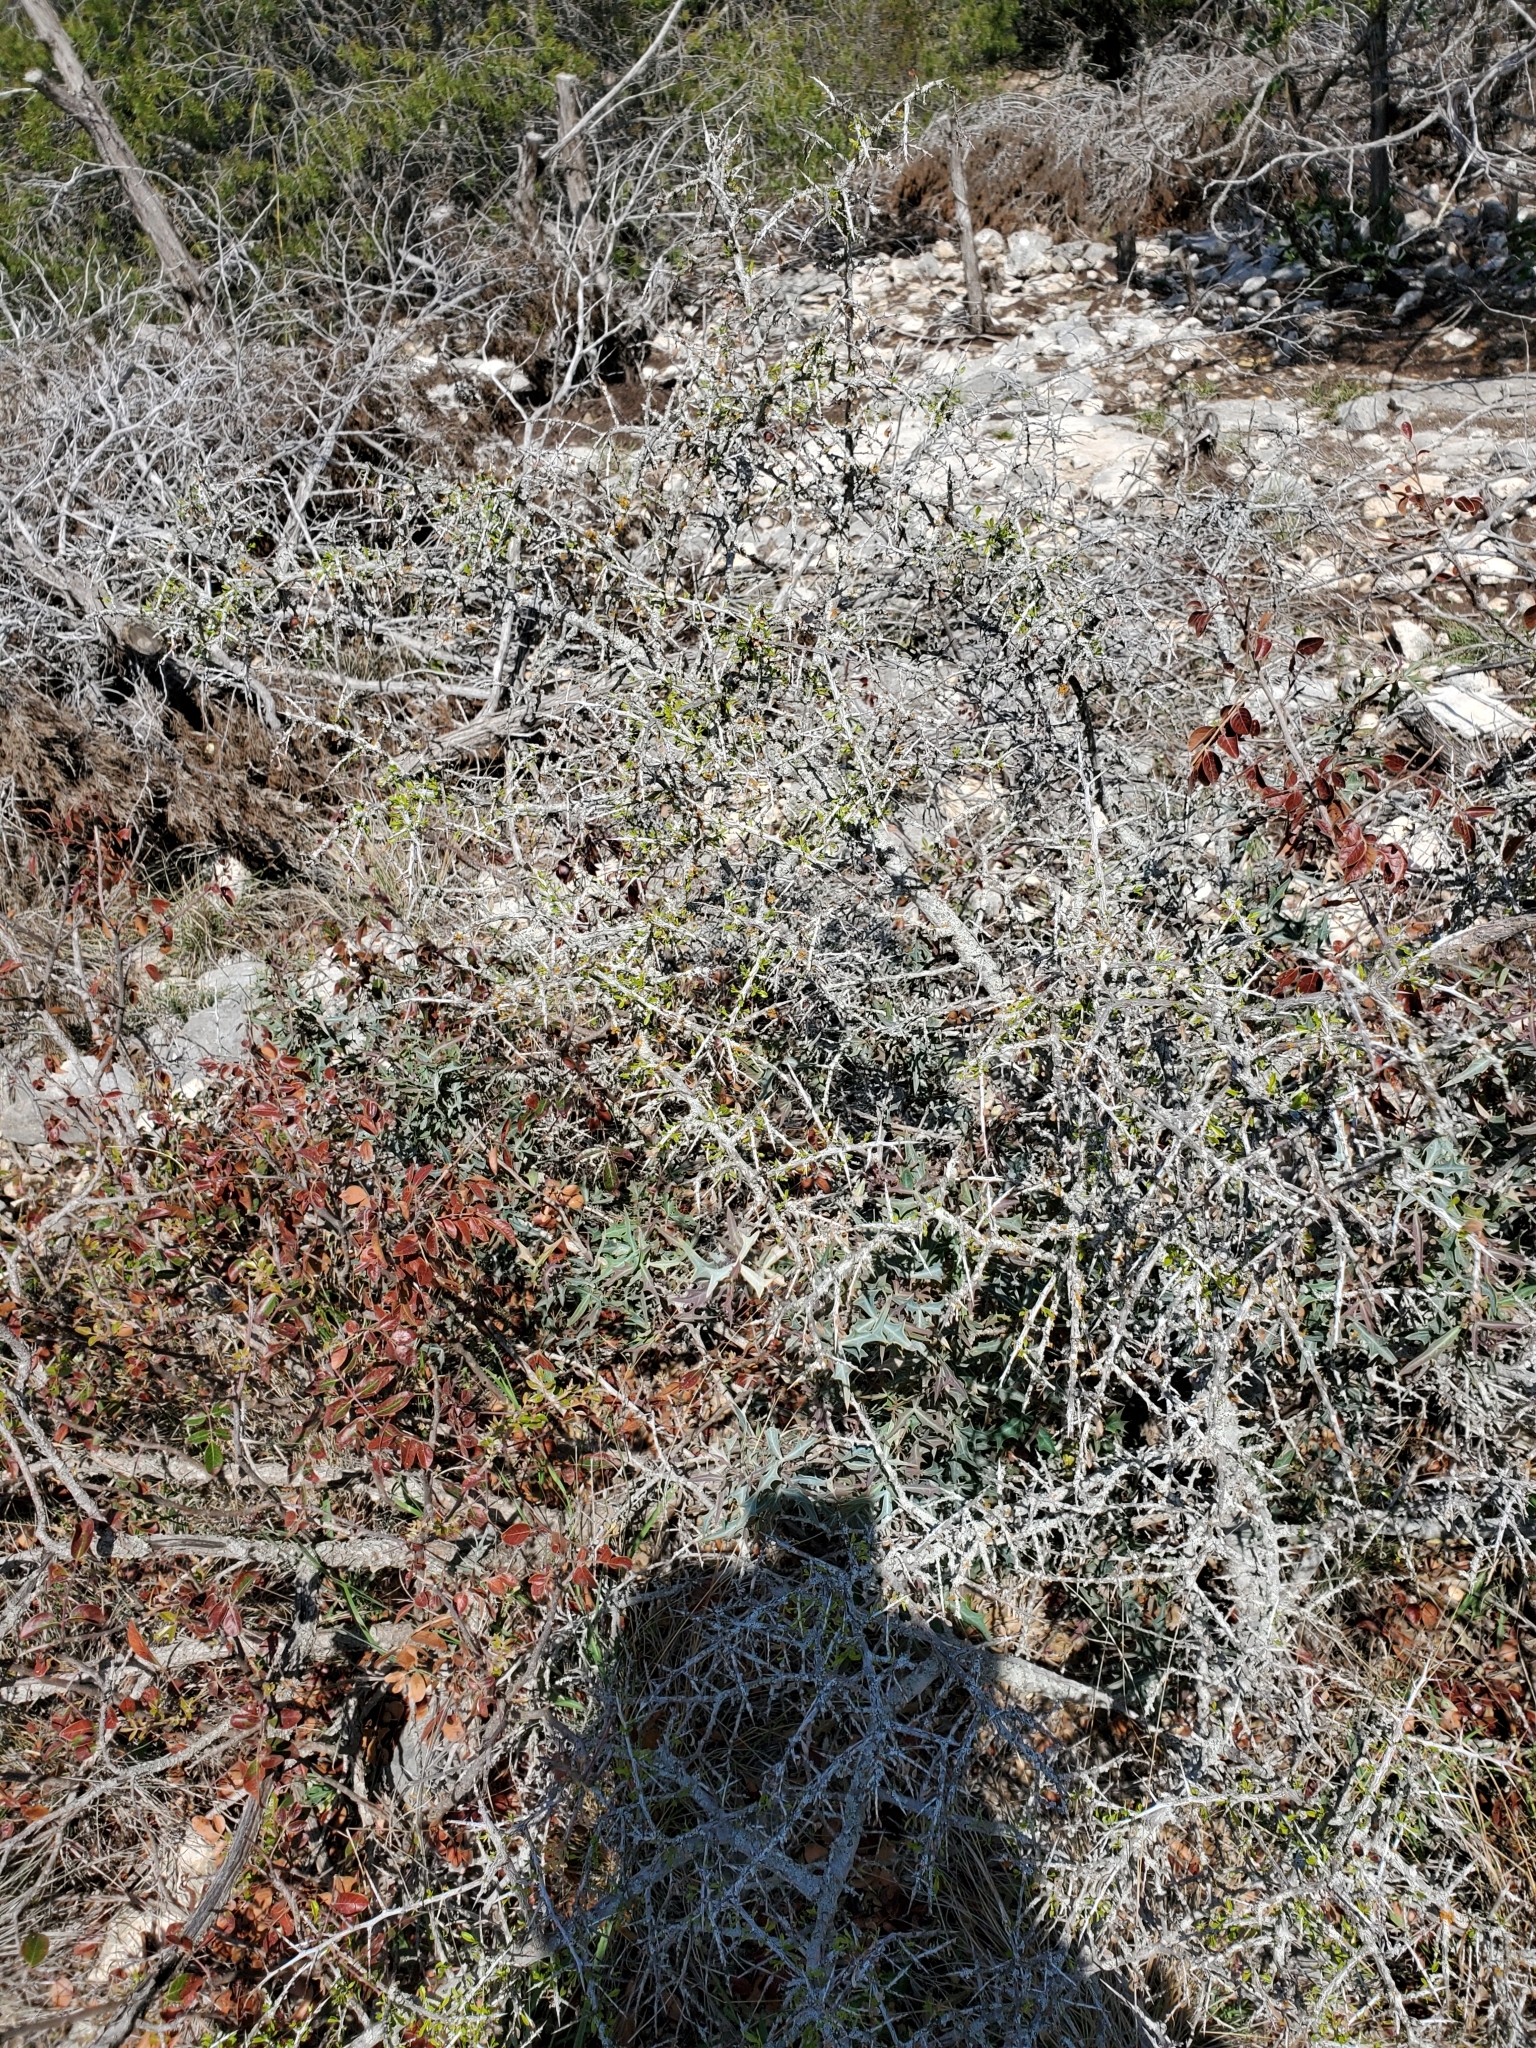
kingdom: Plantae
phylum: Tracheophyta
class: Magnoliopsida
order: Rosales
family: Rhamnaceae
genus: Condalia
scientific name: Condalia viridis
